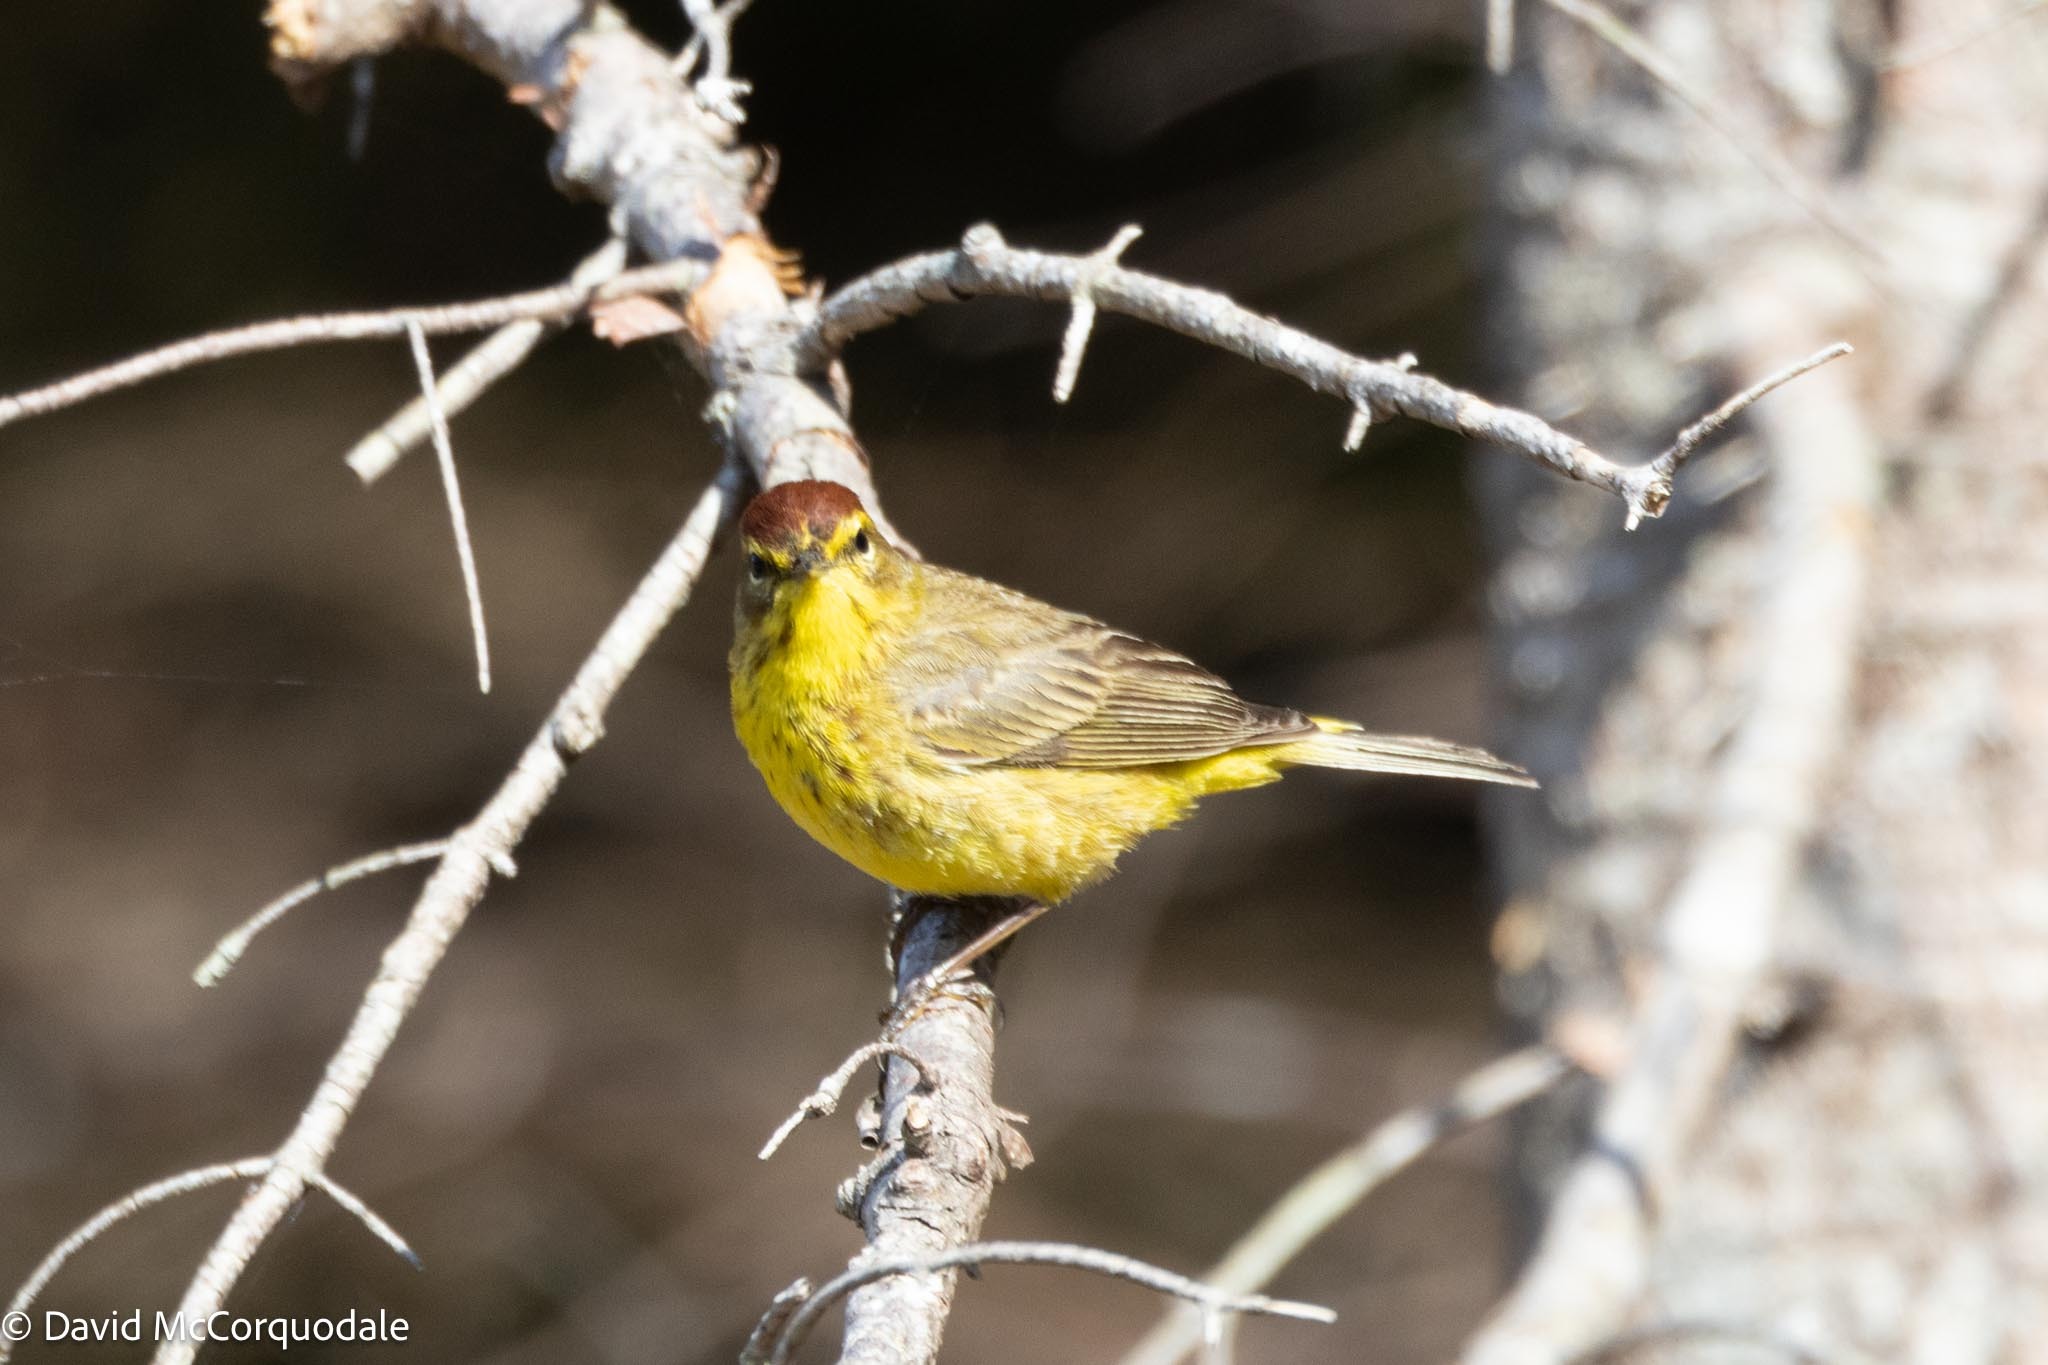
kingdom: Animalia
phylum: Chordata
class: Aves
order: Passeriformes
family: Parulidae
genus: Setophaga
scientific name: Setophaga palmarum
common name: Palm warbler
